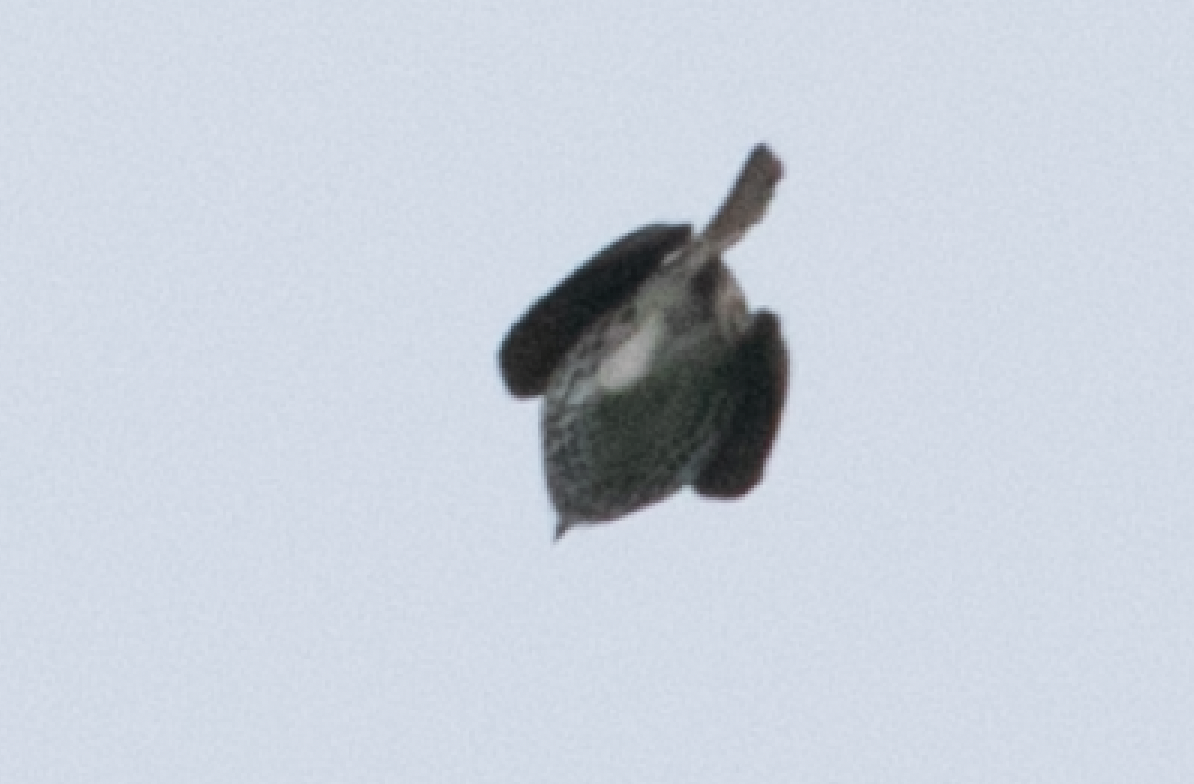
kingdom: Animalia
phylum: Chordata
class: Aves
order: Passeriformes
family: Turdidae
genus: Turdus
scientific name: Turdus philomelos
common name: Song thrush
